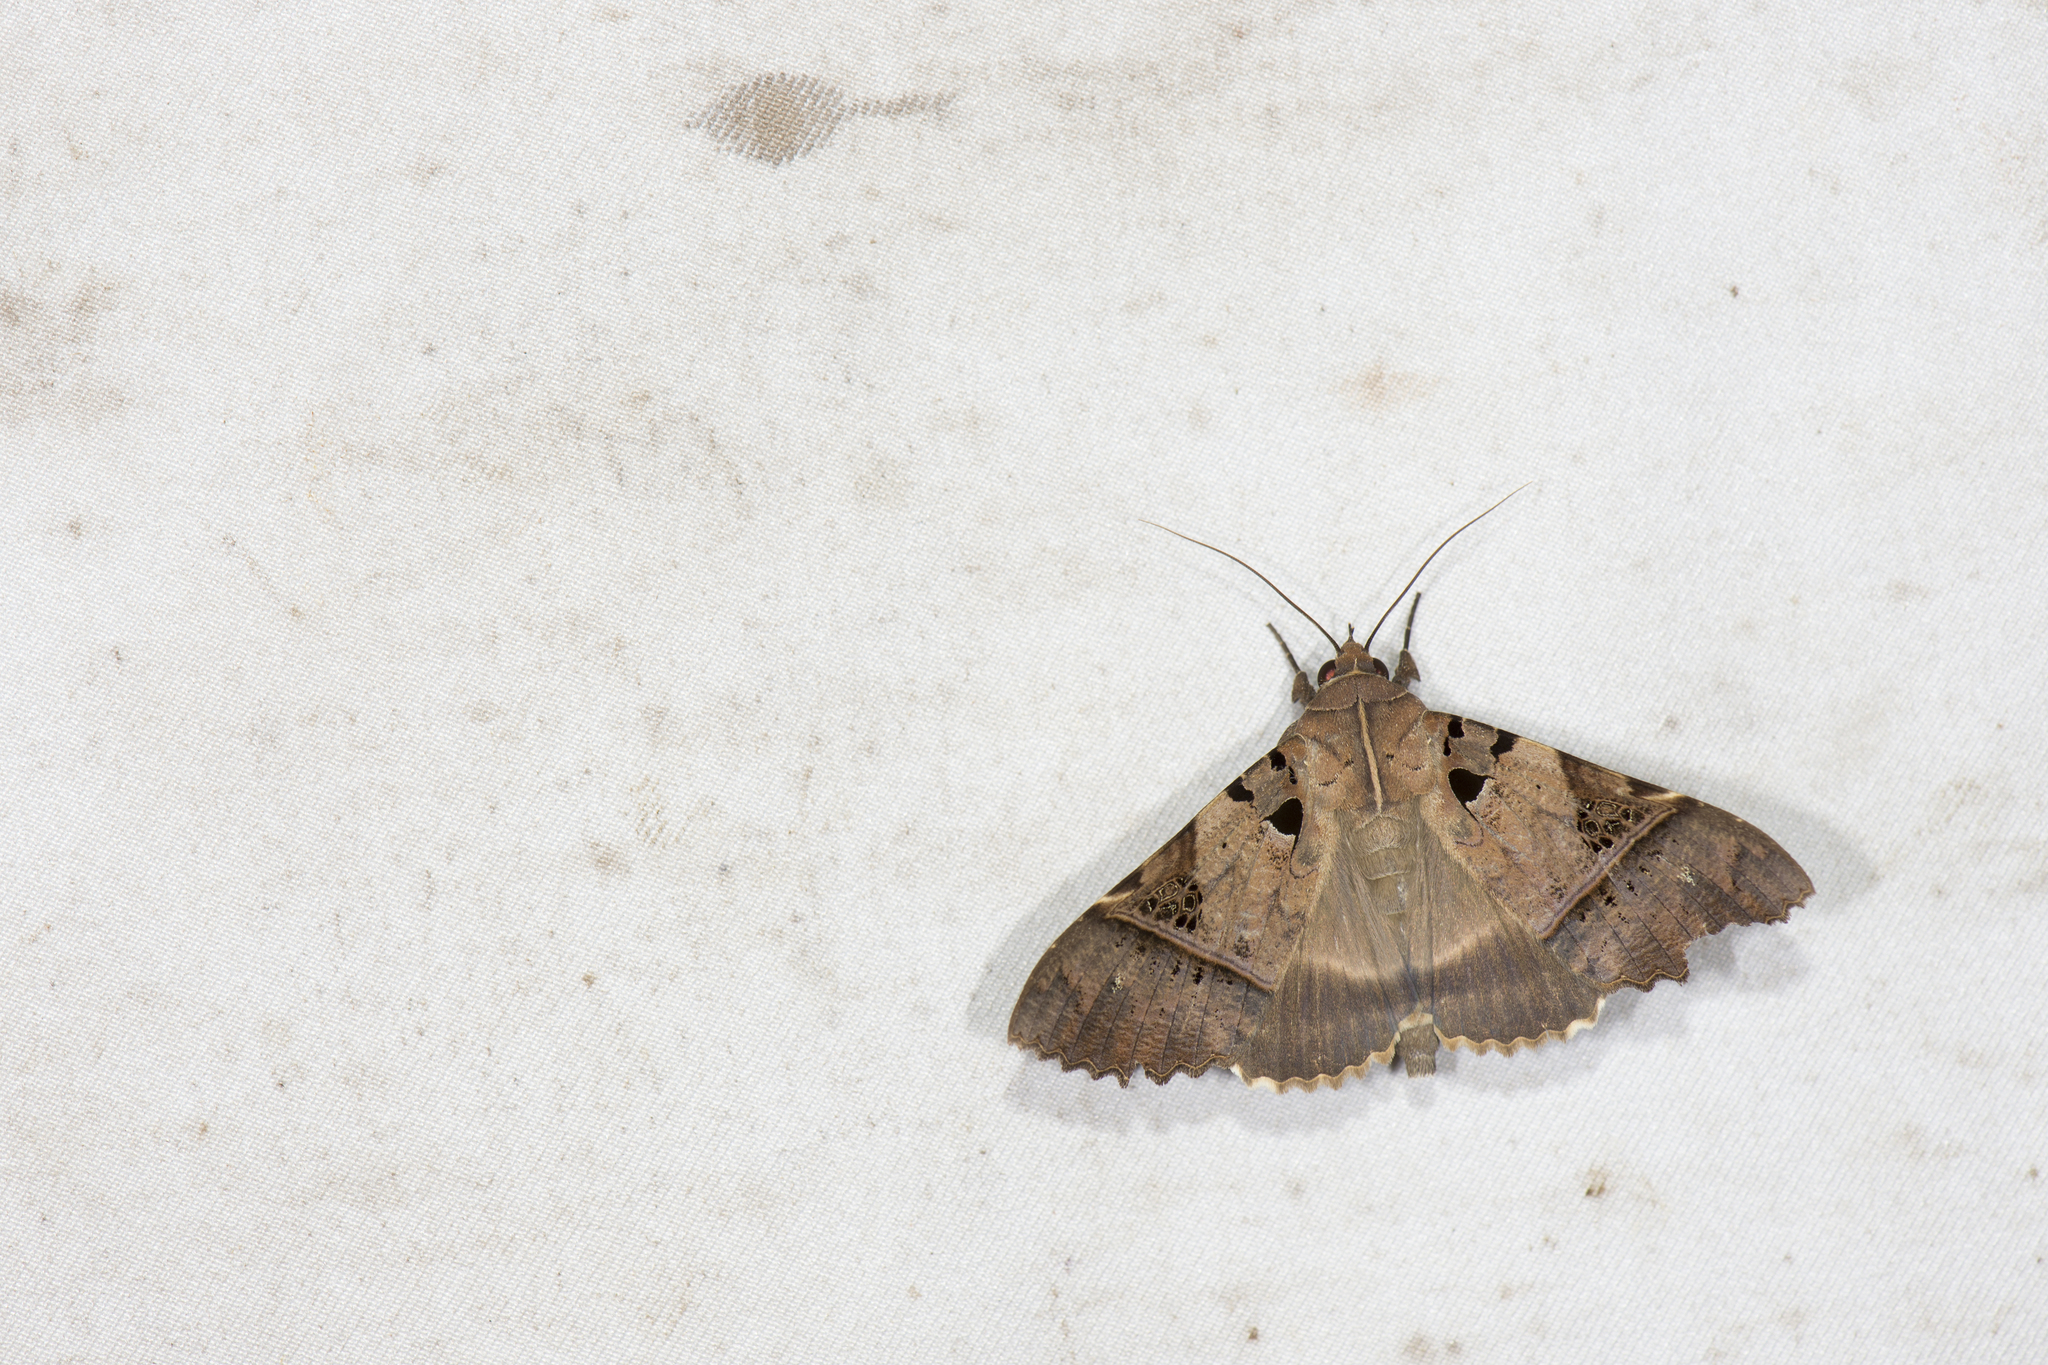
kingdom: Animalia
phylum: Arthropoda
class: Insecta
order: Lepidoptera
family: Erebidae
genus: Serrodes
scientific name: Serrodes campana
